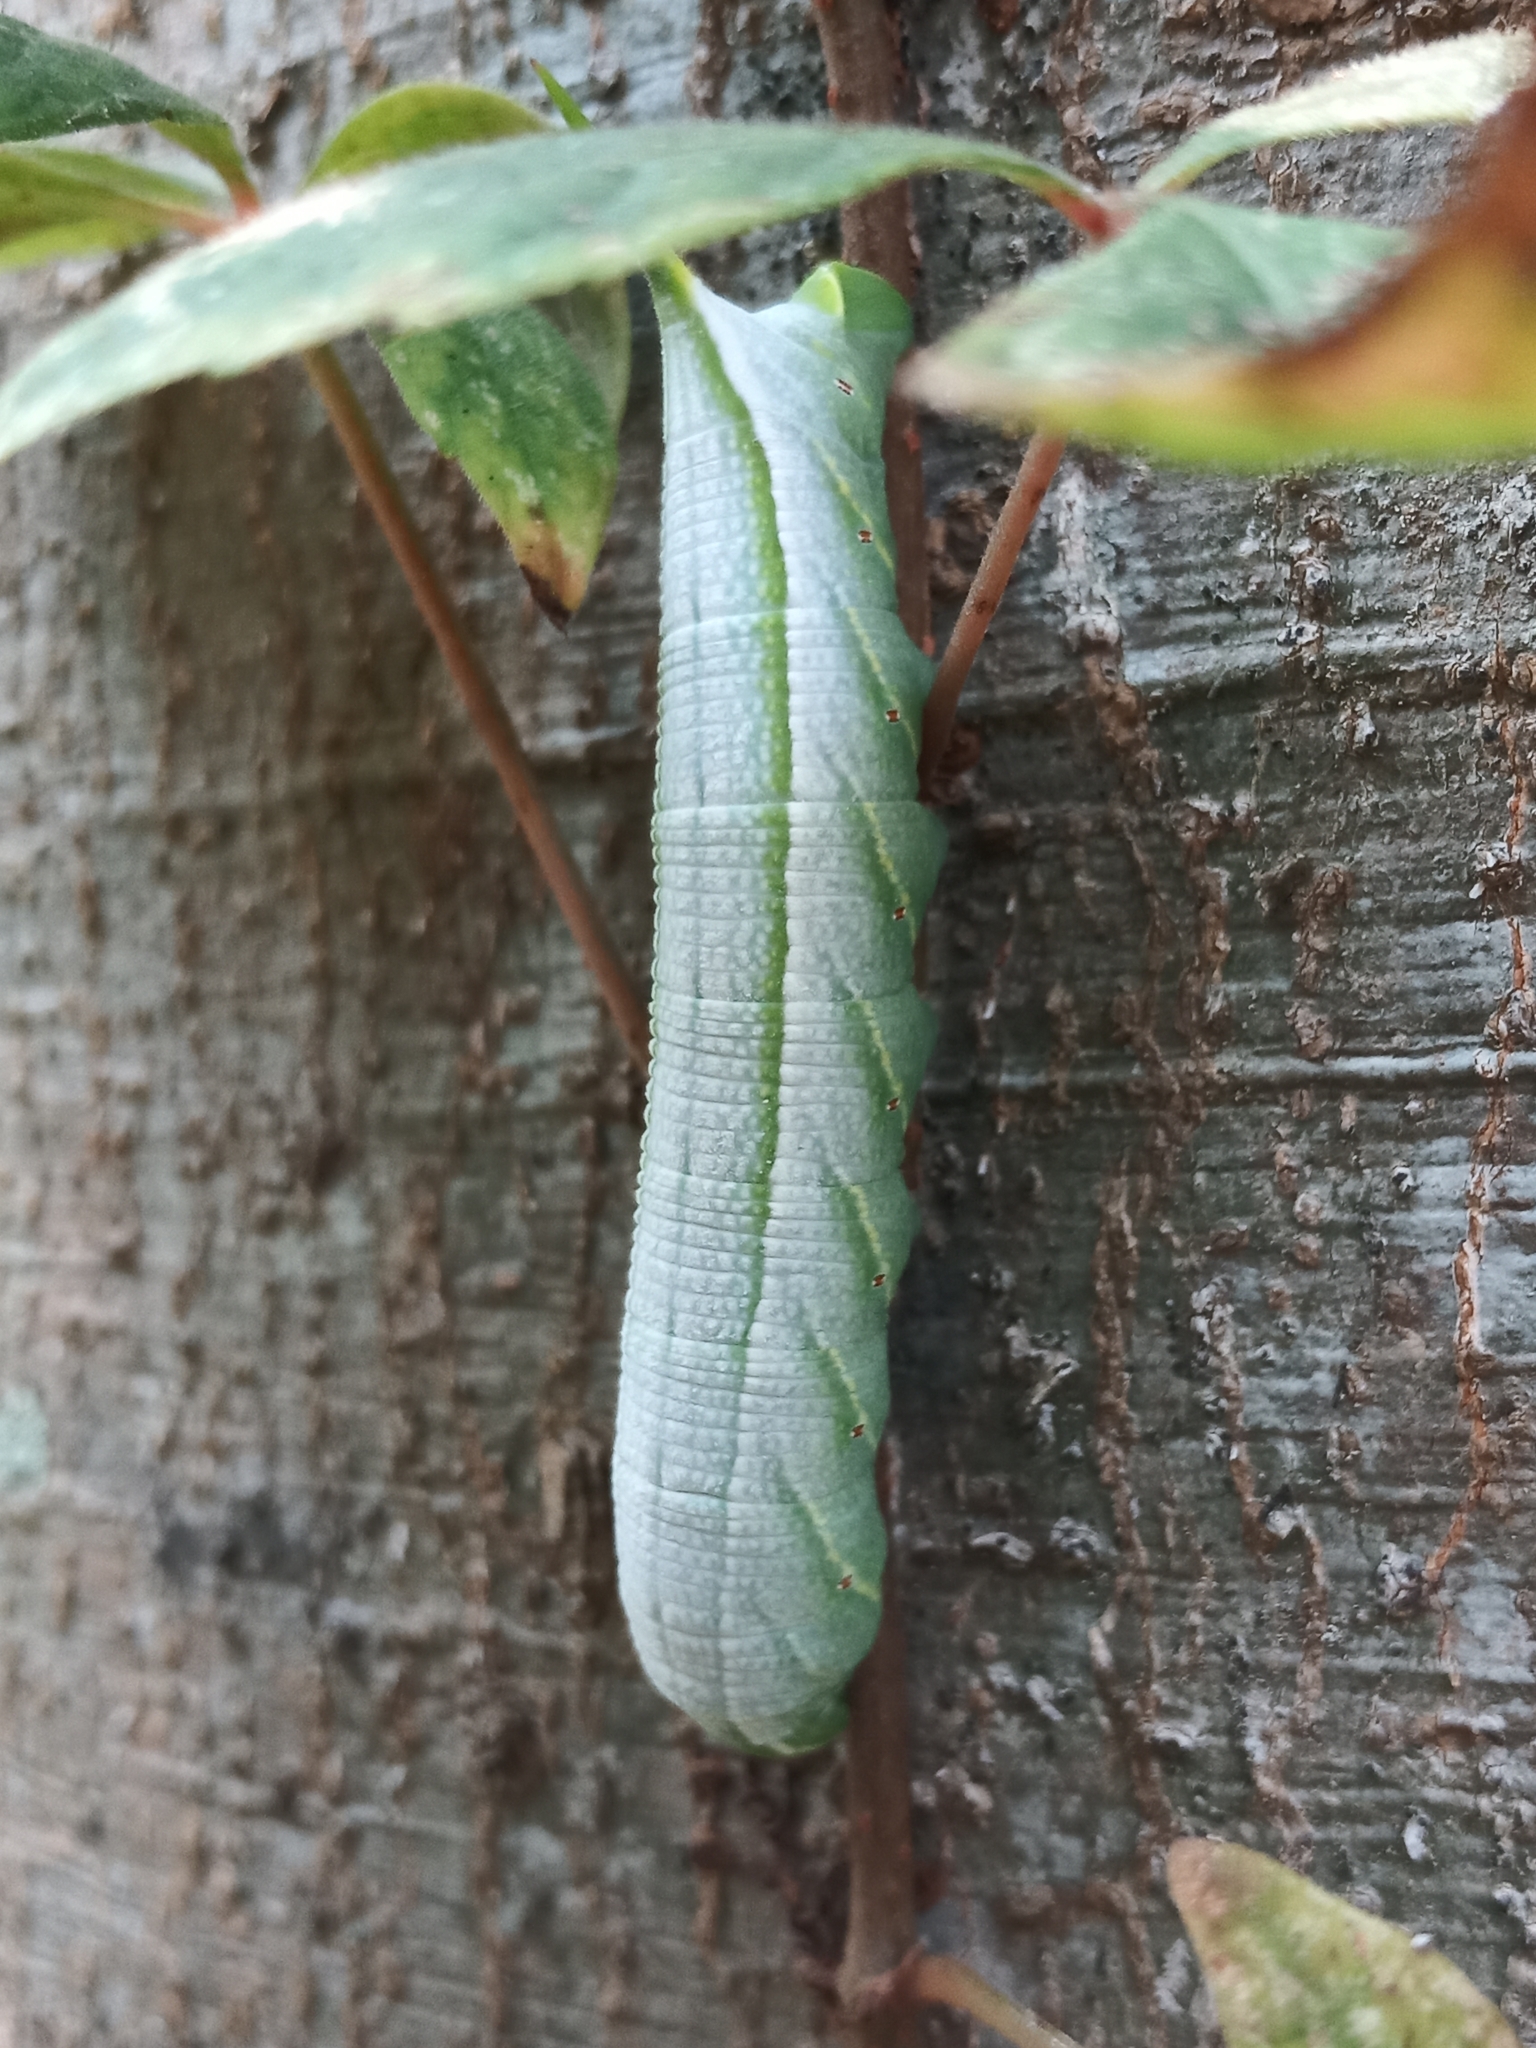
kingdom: Animalia
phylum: Arthropoda
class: Insecta
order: Lepidoptera
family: Sphingidae
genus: Enyo
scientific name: Enyo lugubris
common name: Mournful sphinx
